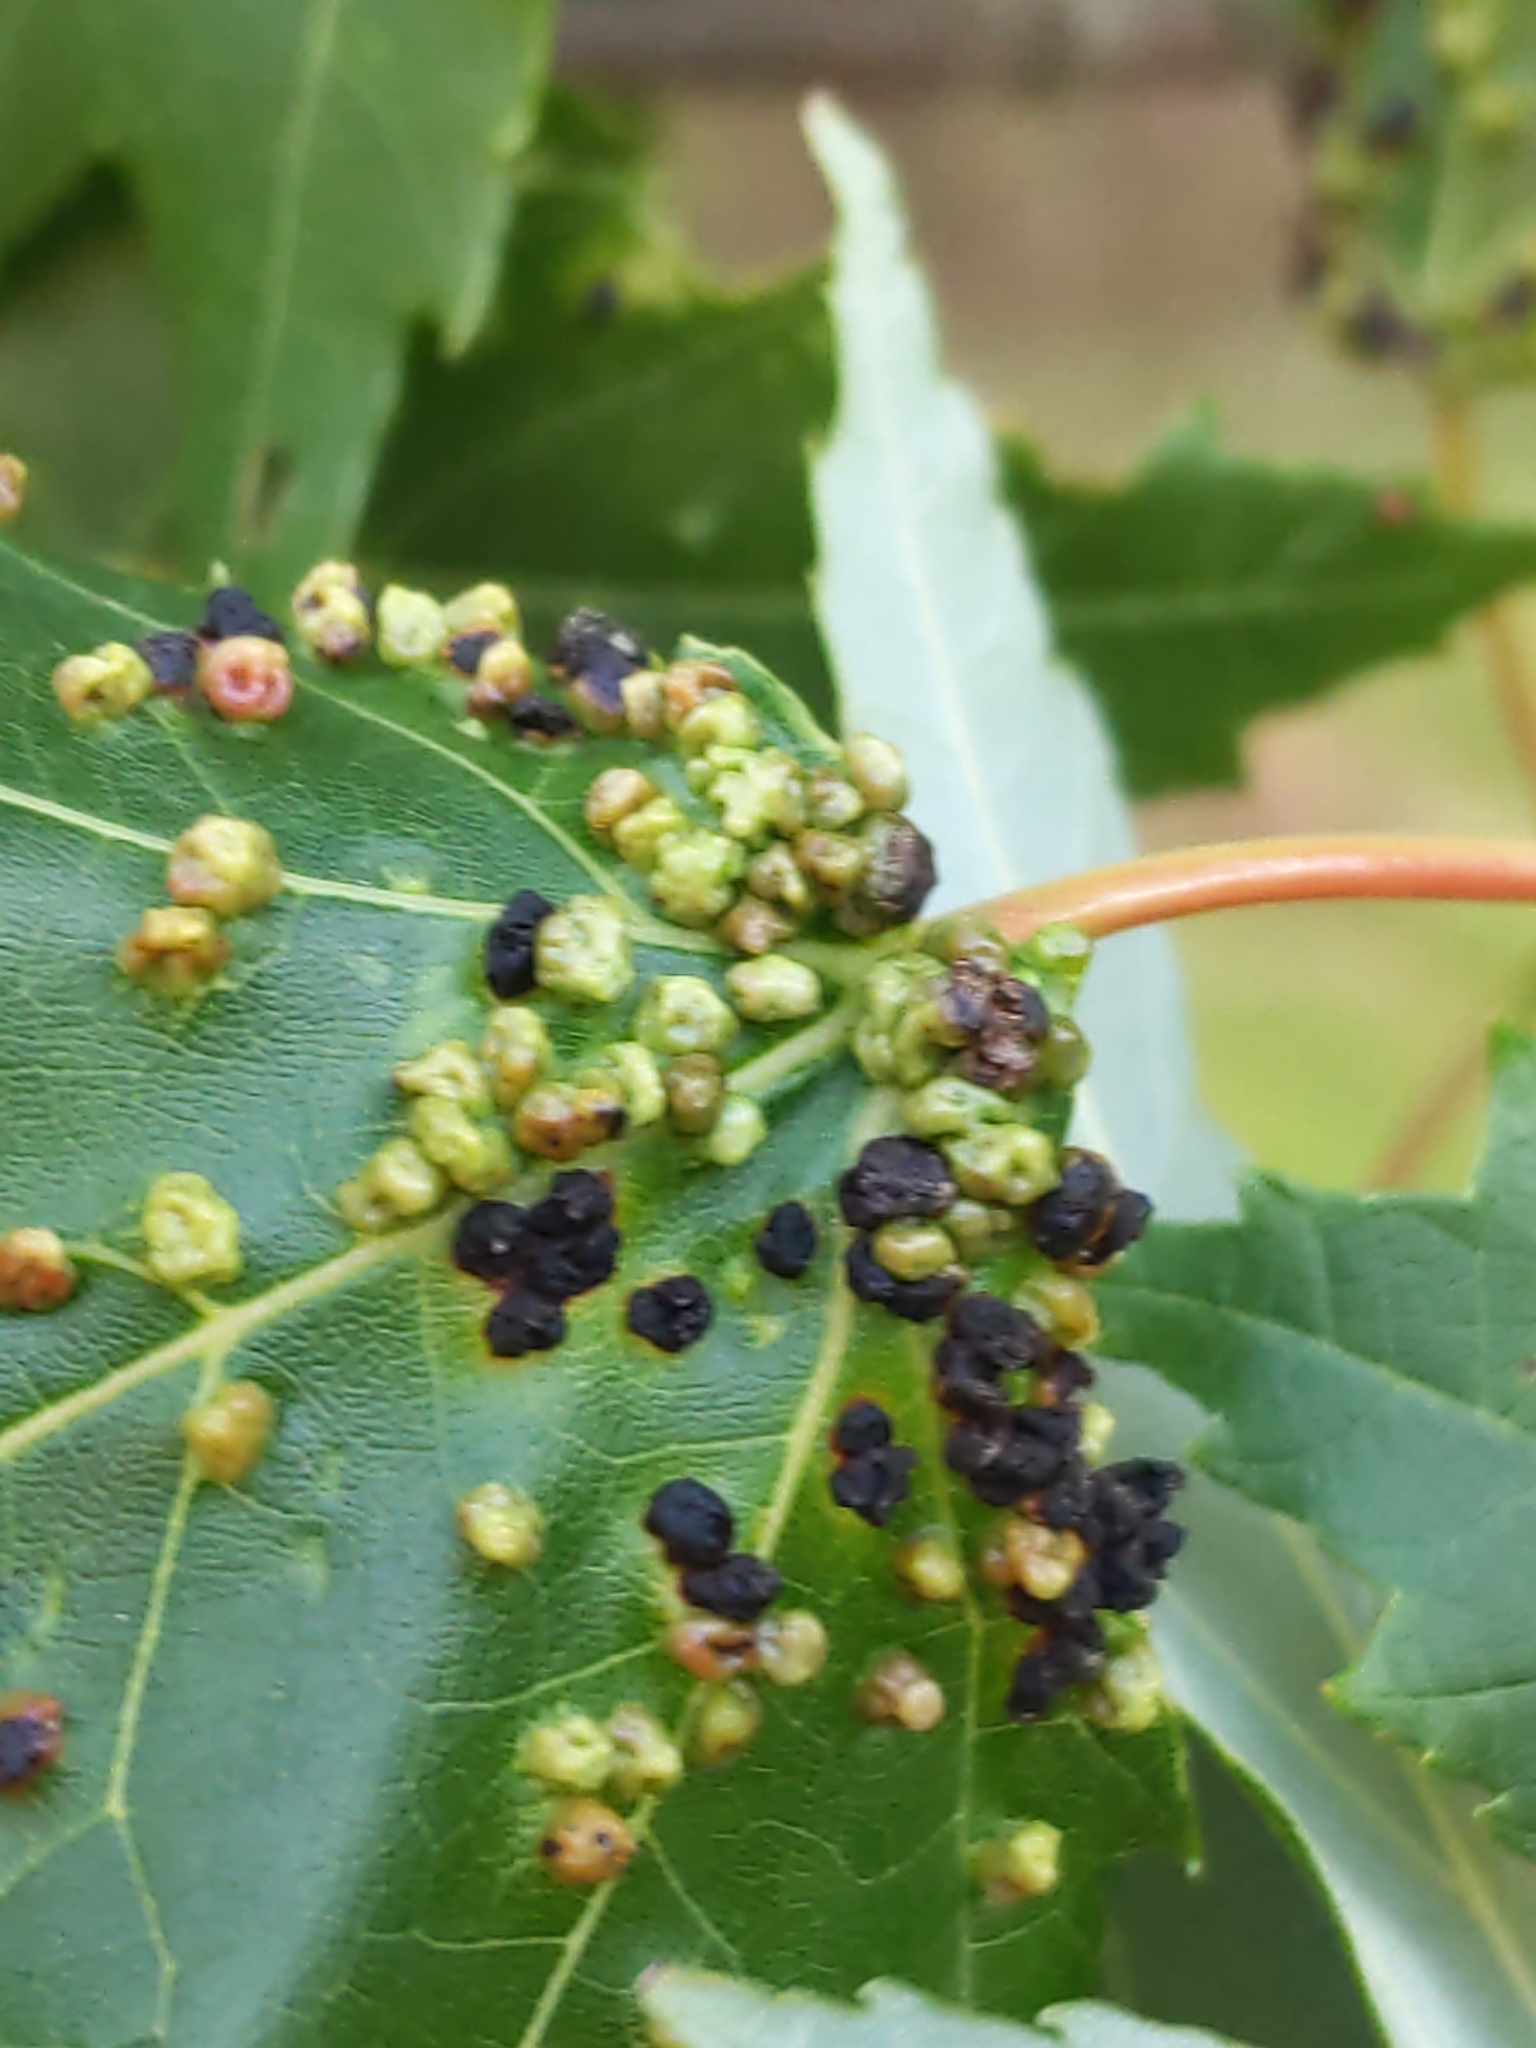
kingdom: Animalia
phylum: Arthropoda
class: Arachnida
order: Trombidiformes
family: Eriophyidae
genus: Vasates
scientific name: Vasates quadripedes
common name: Maple bladder gall mite
